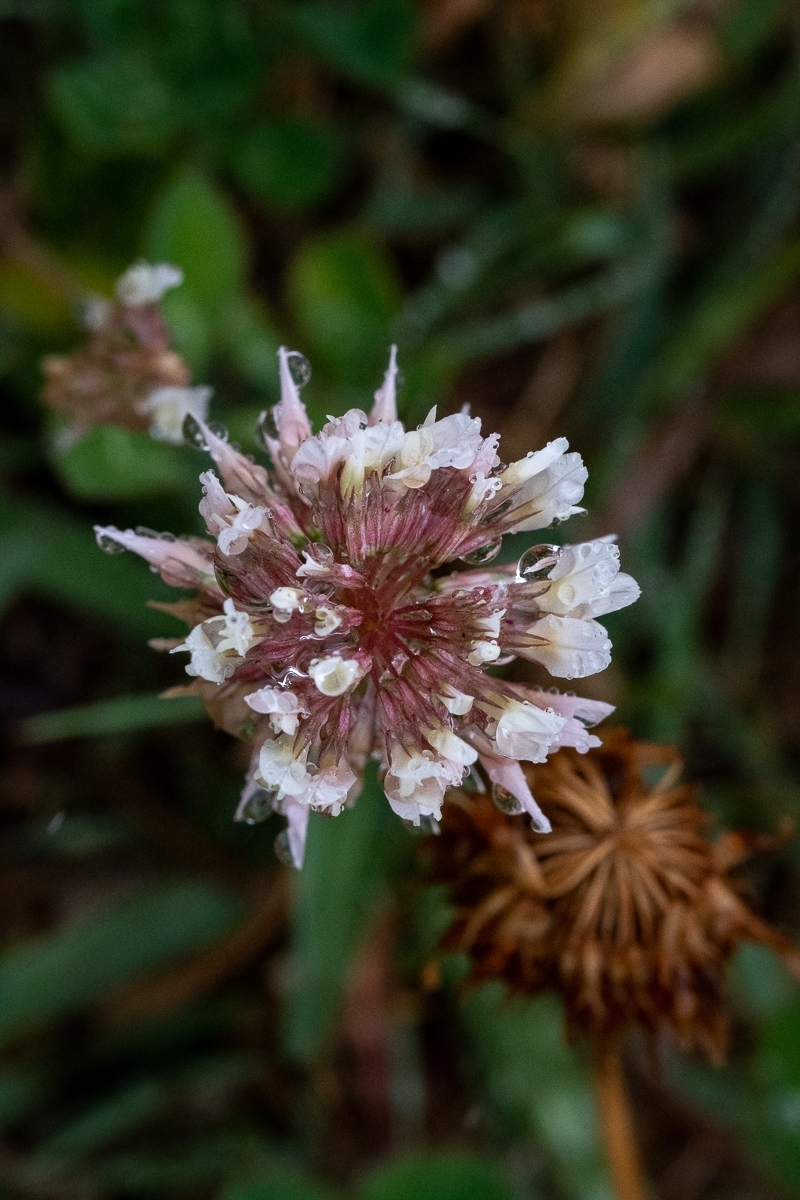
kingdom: Plantae
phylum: Tracheophyta
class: Magnoliopsida
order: Fabales
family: Fabaceae
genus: Trifolium
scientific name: Trifolium repens
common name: White clover
